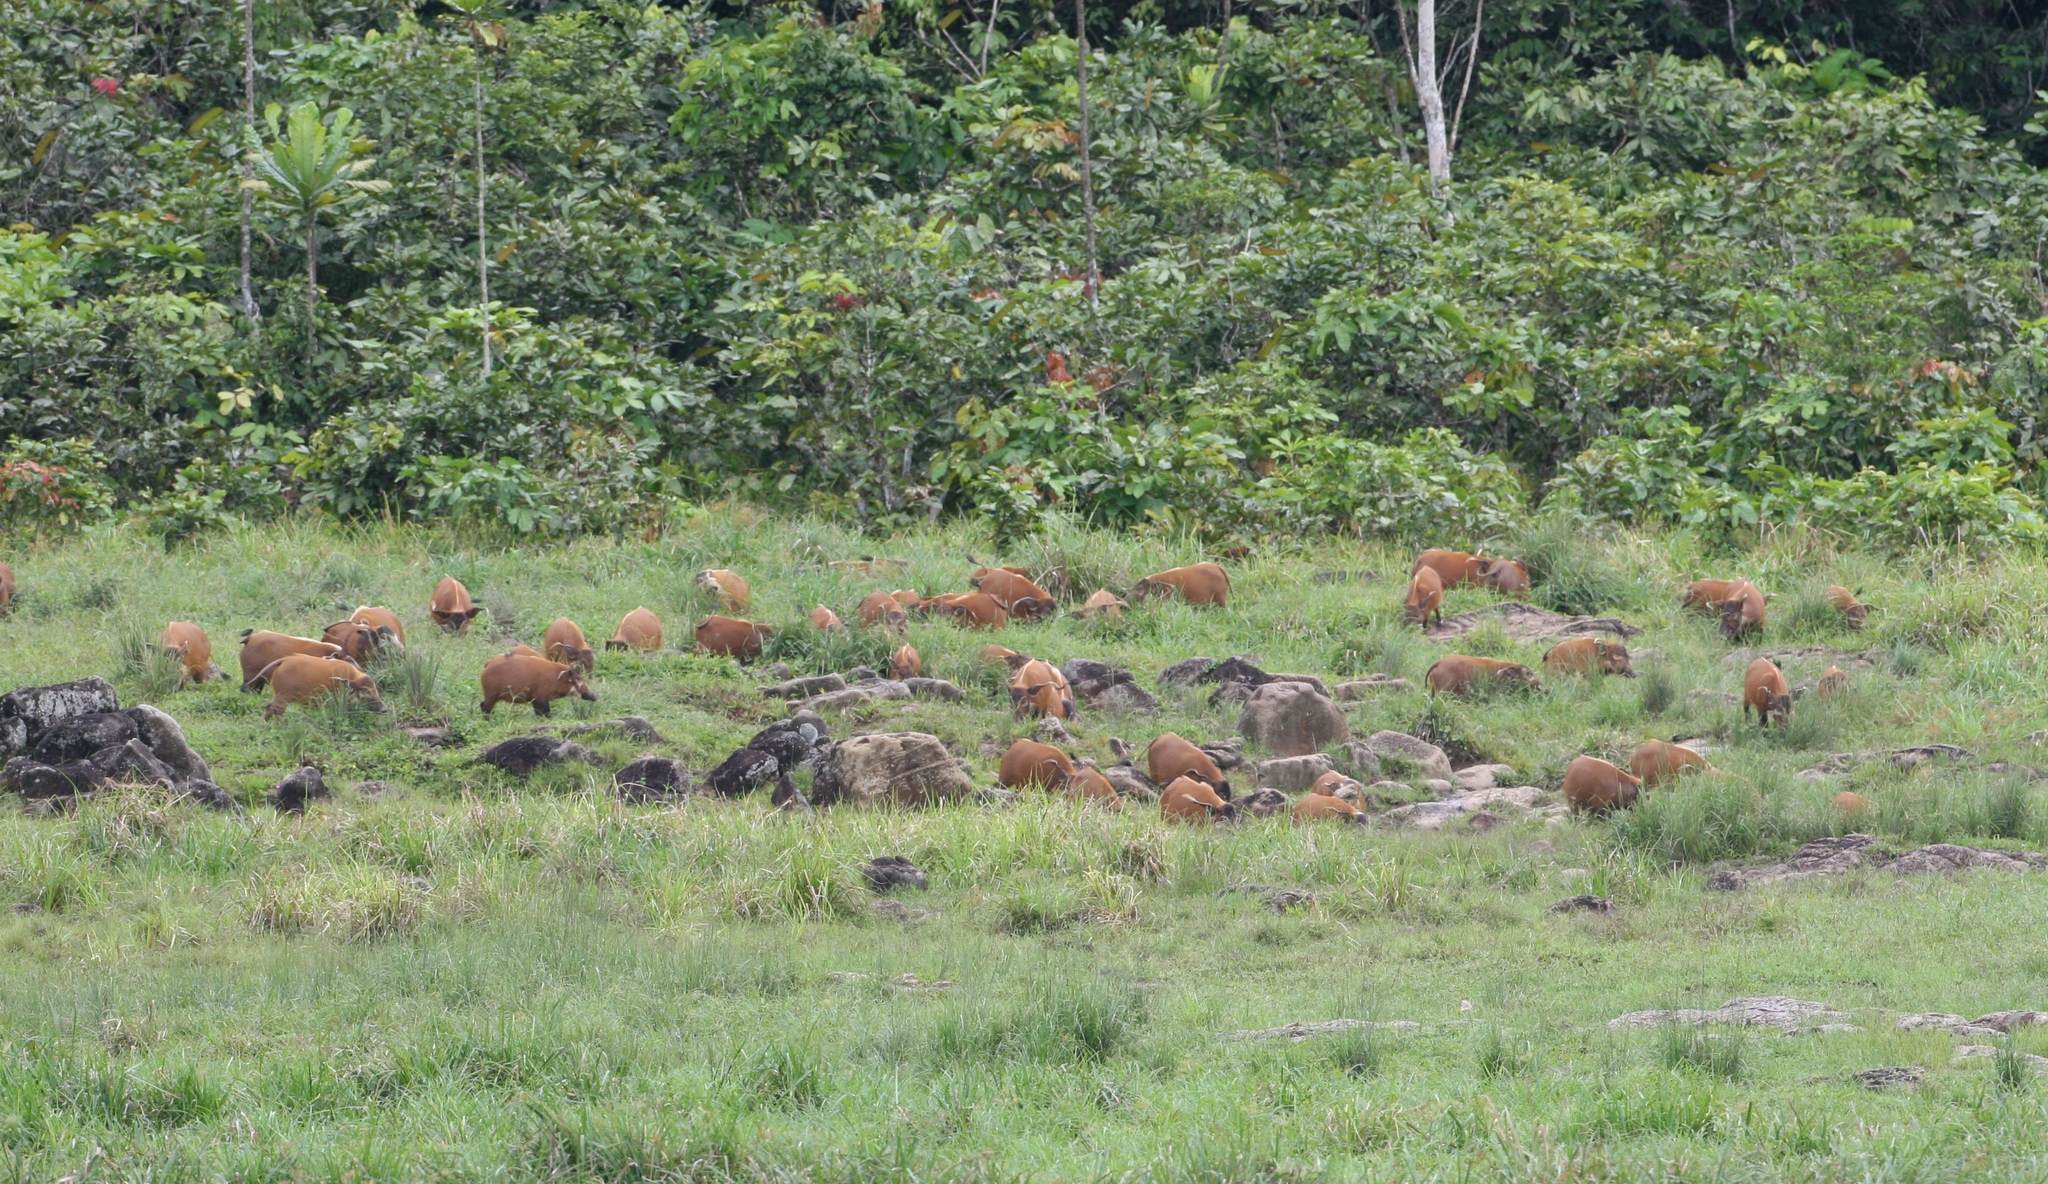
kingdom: Animalia
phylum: Chordata
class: Mammalia
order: Artiodactyla
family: Suidae
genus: Potamochoerus
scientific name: Potamochoerus porcus
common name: Red river hog
